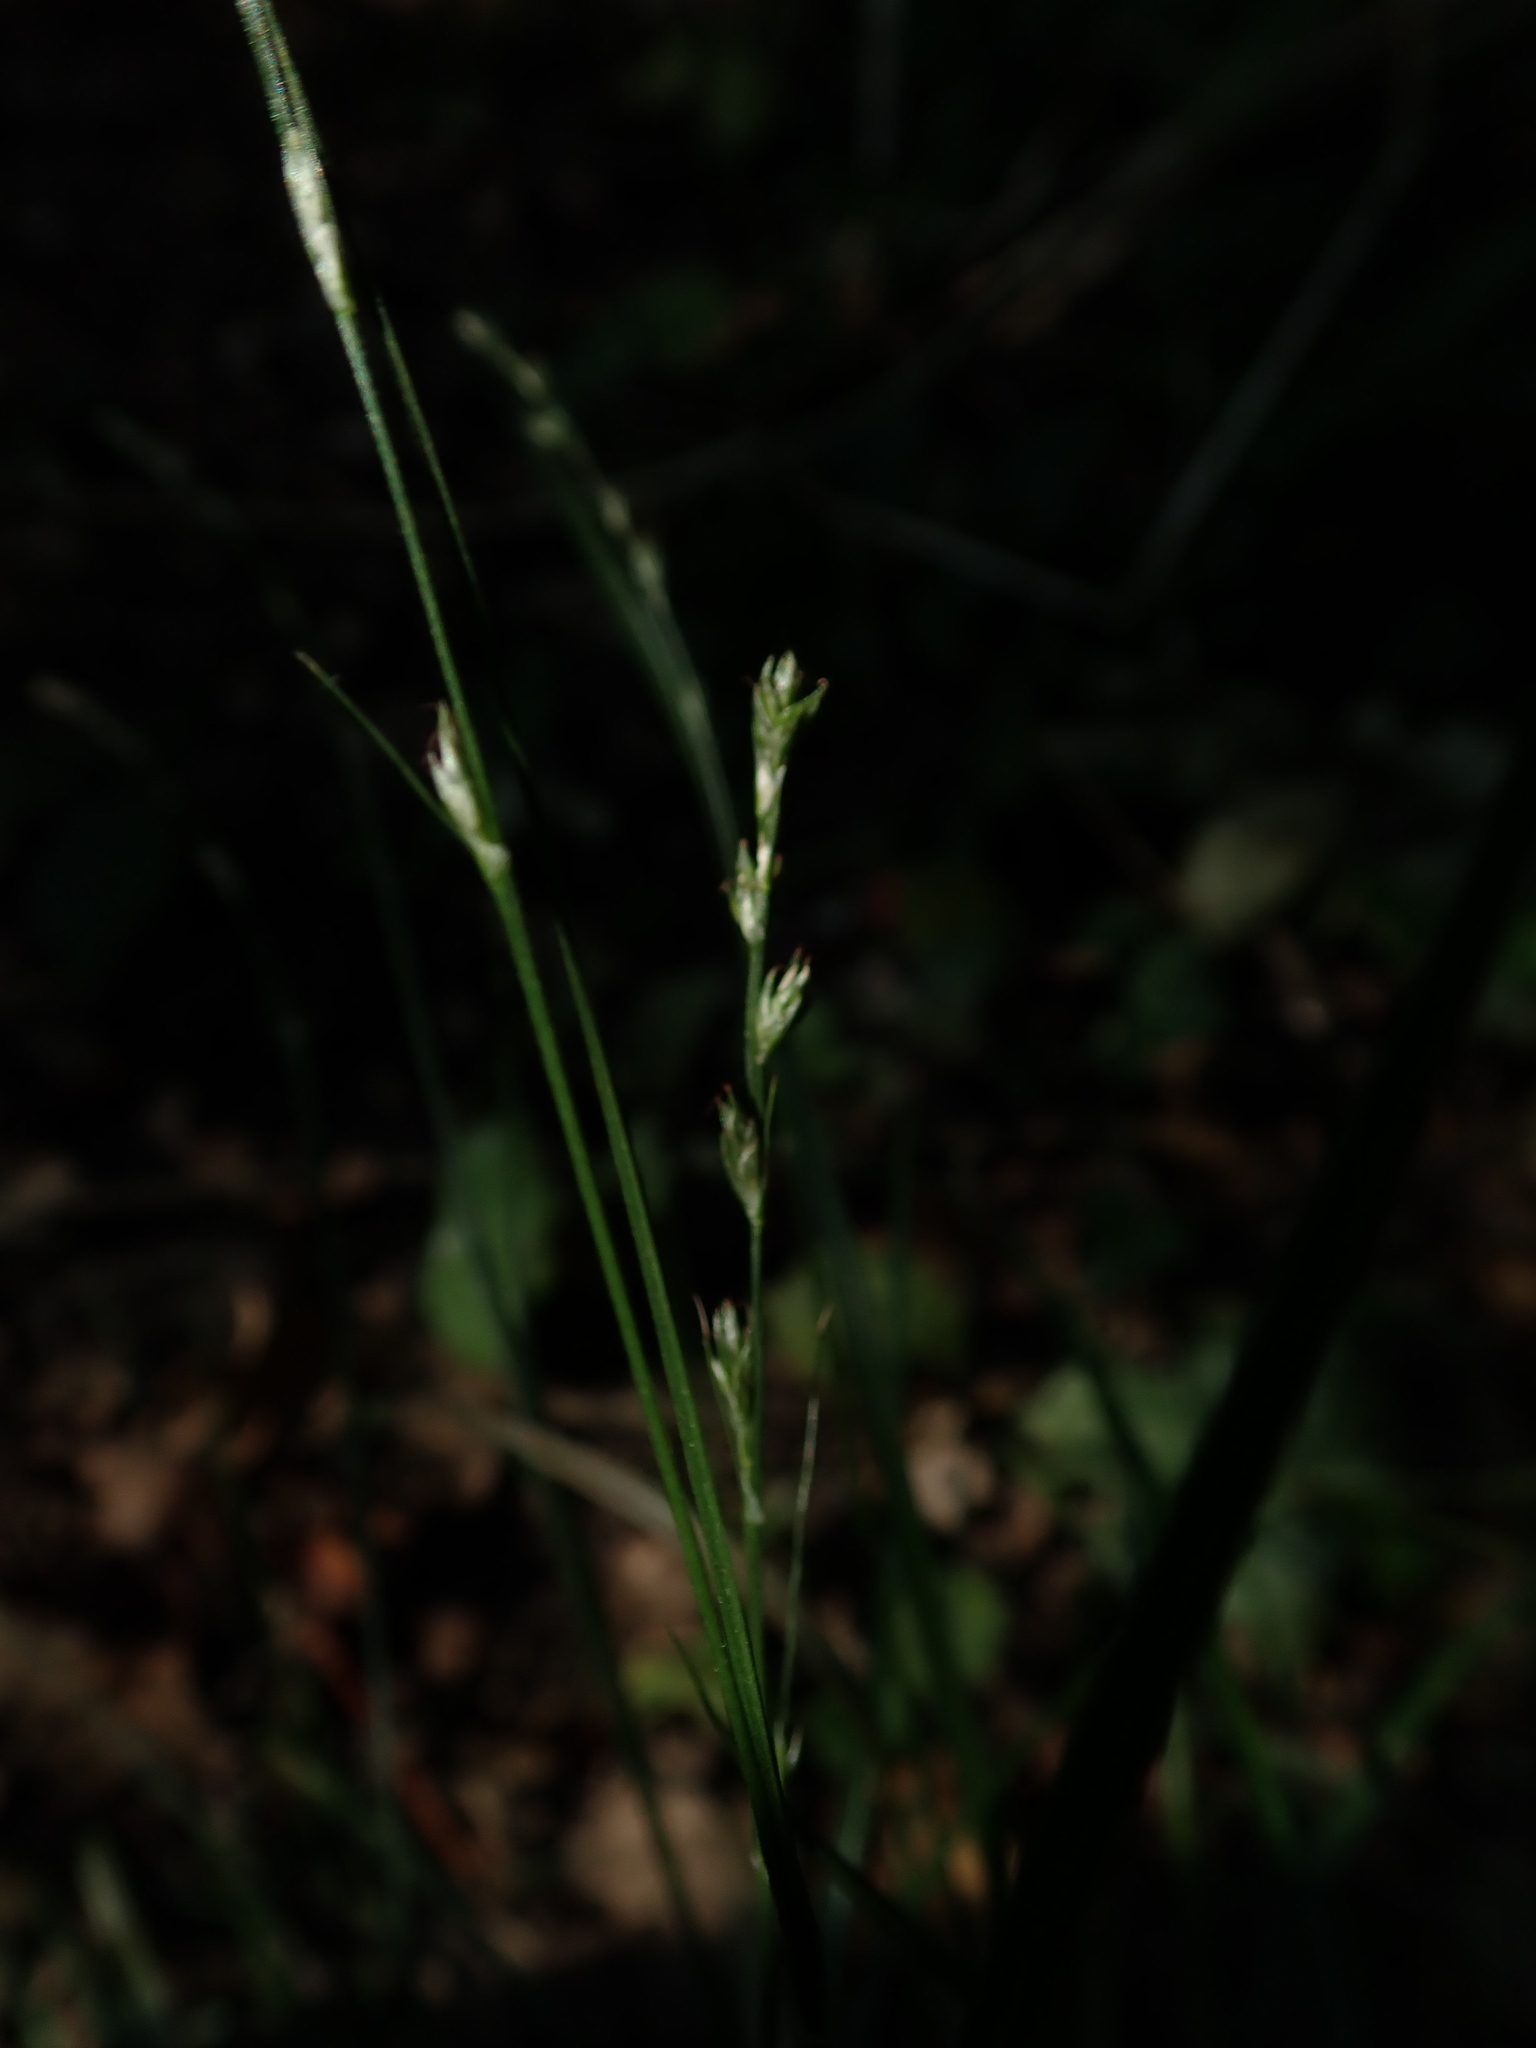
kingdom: Plantae
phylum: Tracheophyta
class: Liliopsida
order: Poales
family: Cyperaceae
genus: Carex
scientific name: Carex divulsa
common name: Grassland sedge
